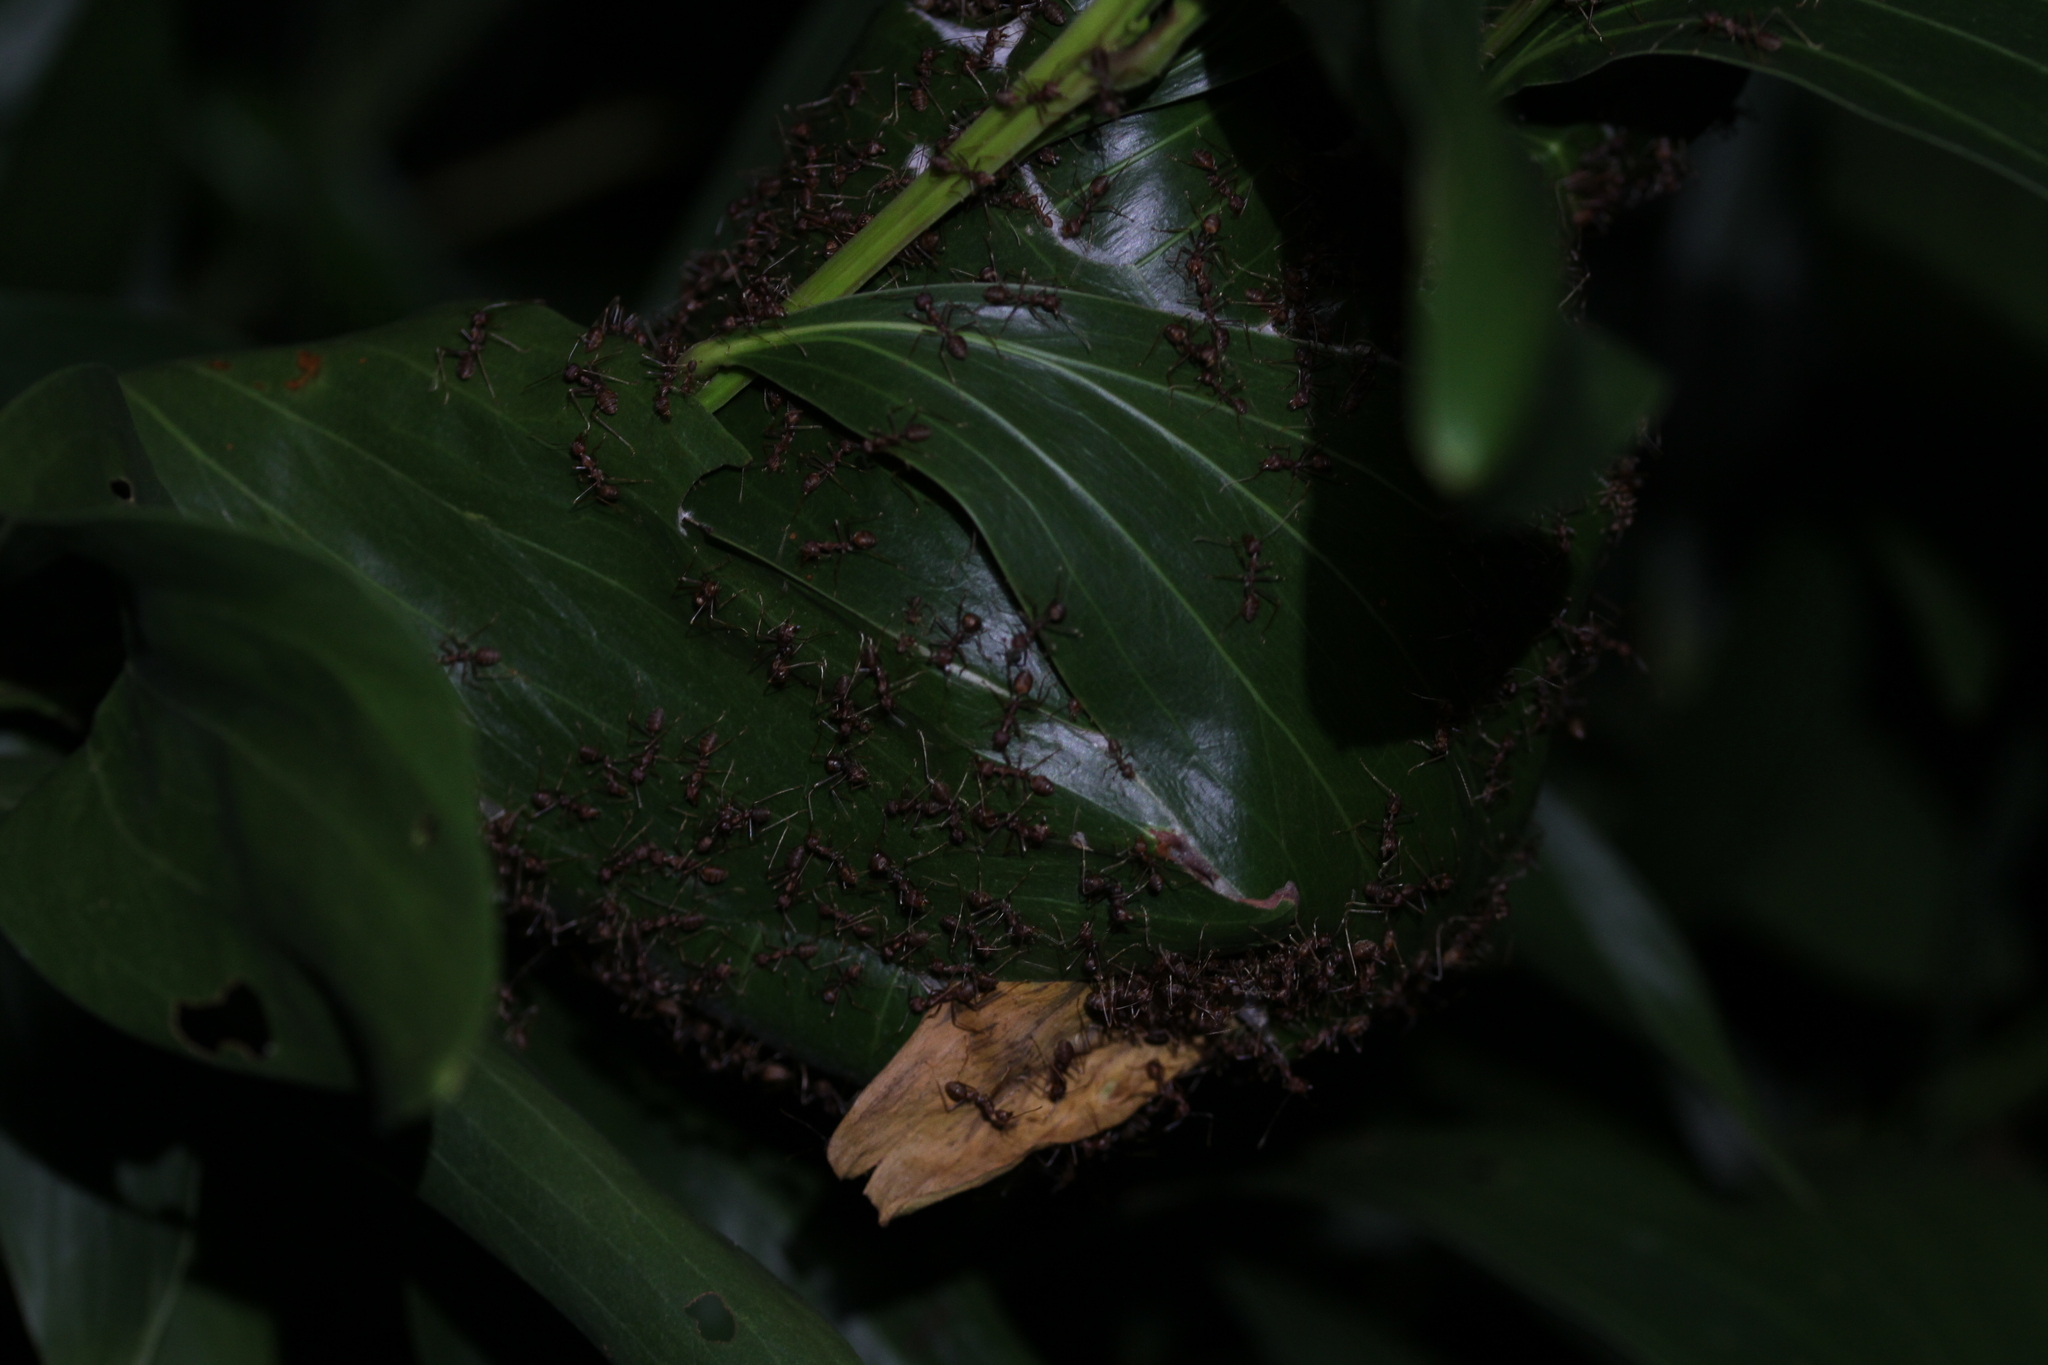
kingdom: Animalia
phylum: Arthropoda
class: Insecta
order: Hymenoptera
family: Formicidae
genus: Oecophylla
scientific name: Oecophylla smaragdina
